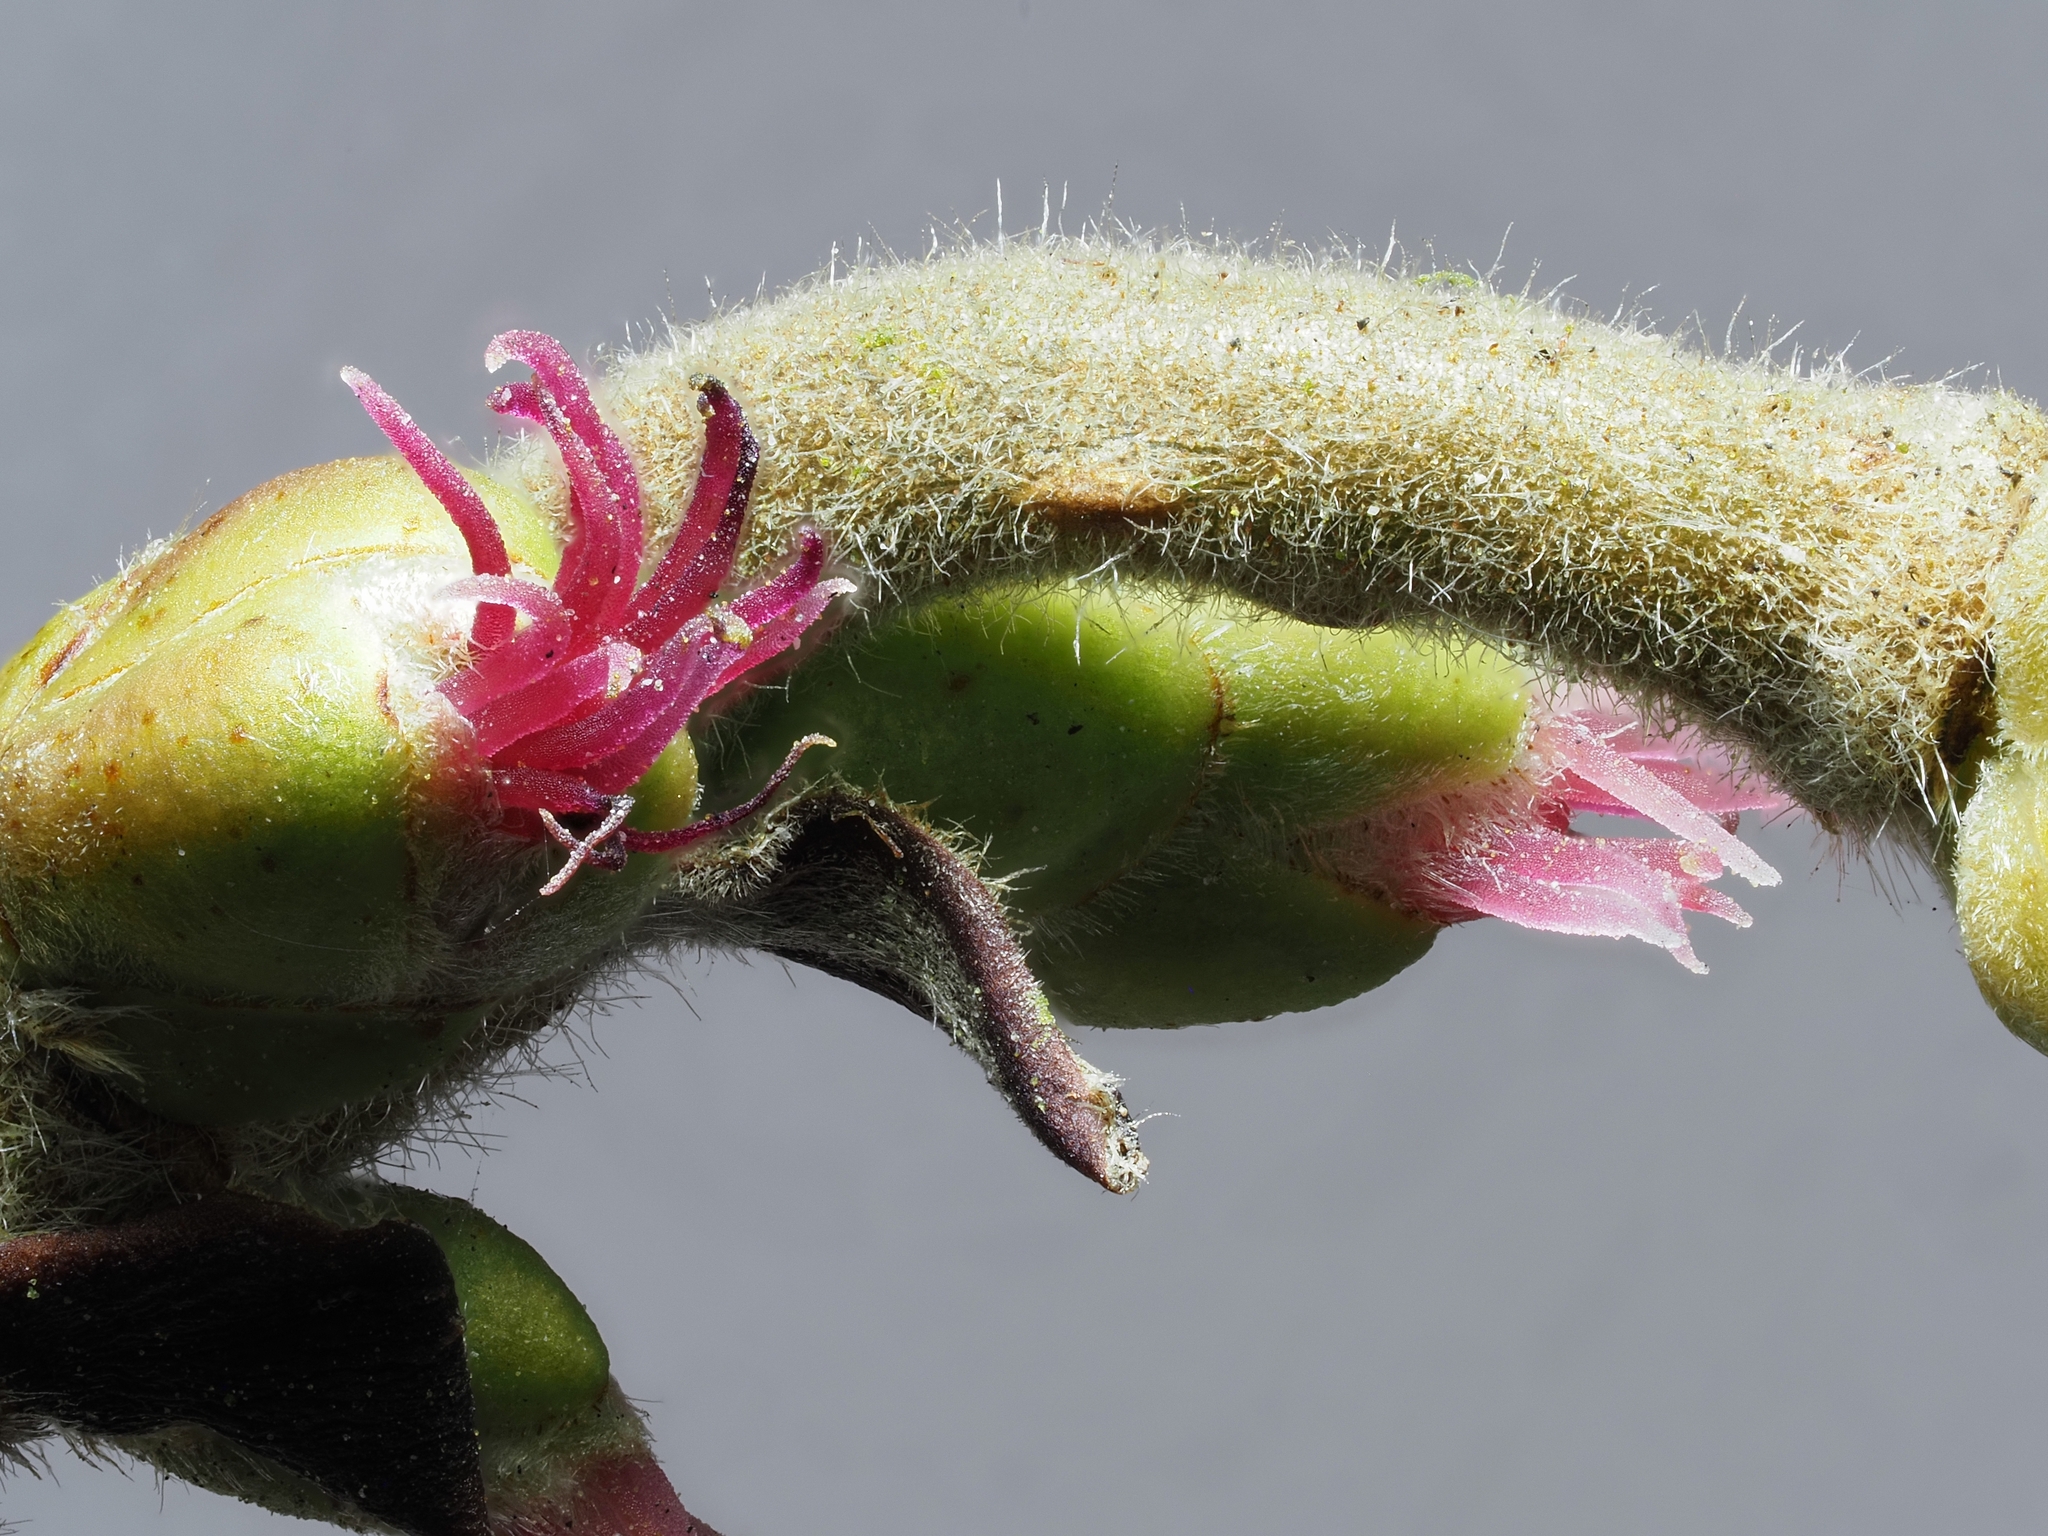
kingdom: Plantae
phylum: Tracheophyta
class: Magnoliopsida
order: Fagales
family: Betulaceae
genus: Corylus
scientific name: Corylus avellana
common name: European hazel
